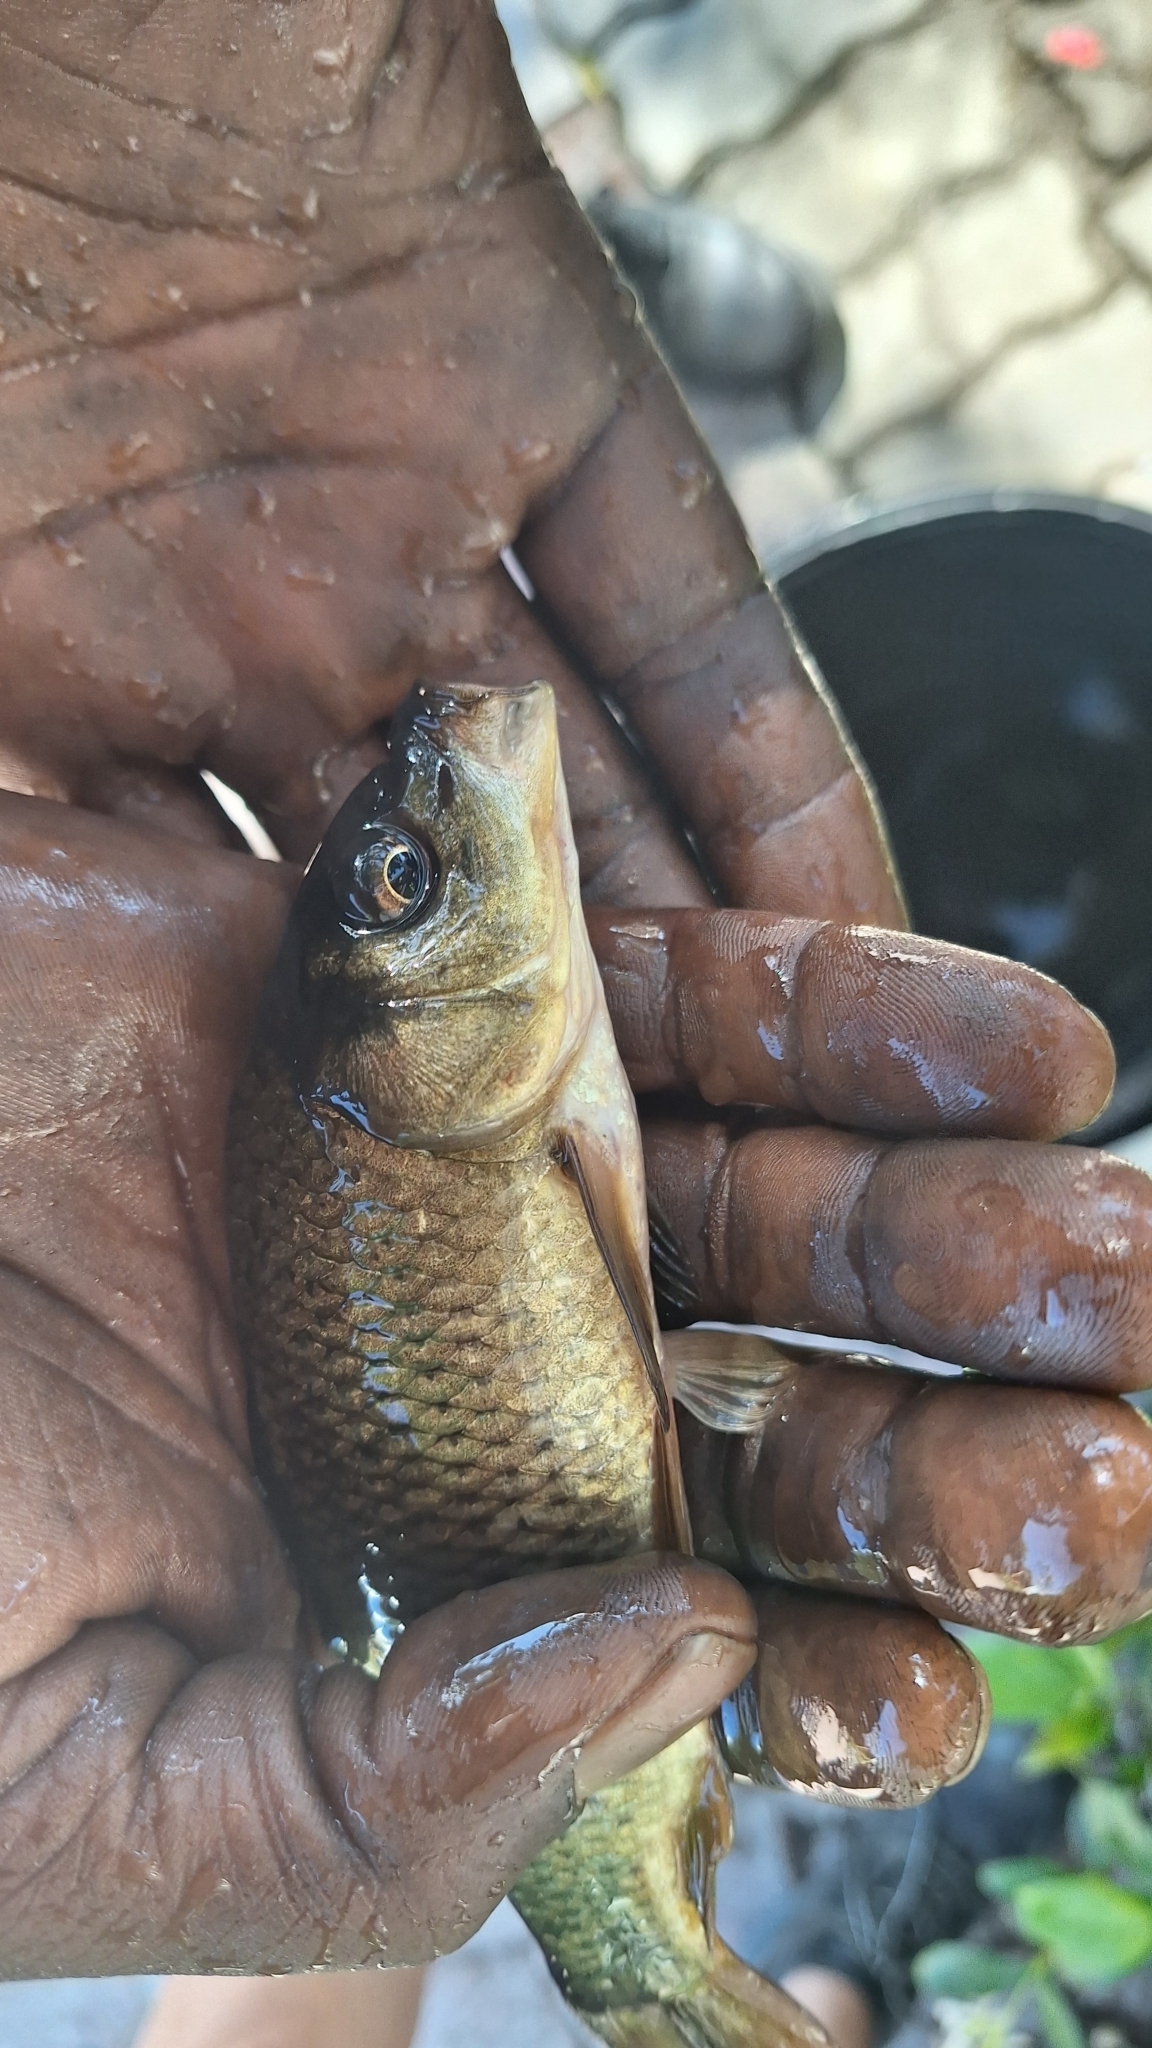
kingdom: Animalia
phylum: Chordata
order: Cypriniformes
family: Cyprinidae
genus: Cyprinus
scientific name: Cyprinus carpio
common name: Common carp
